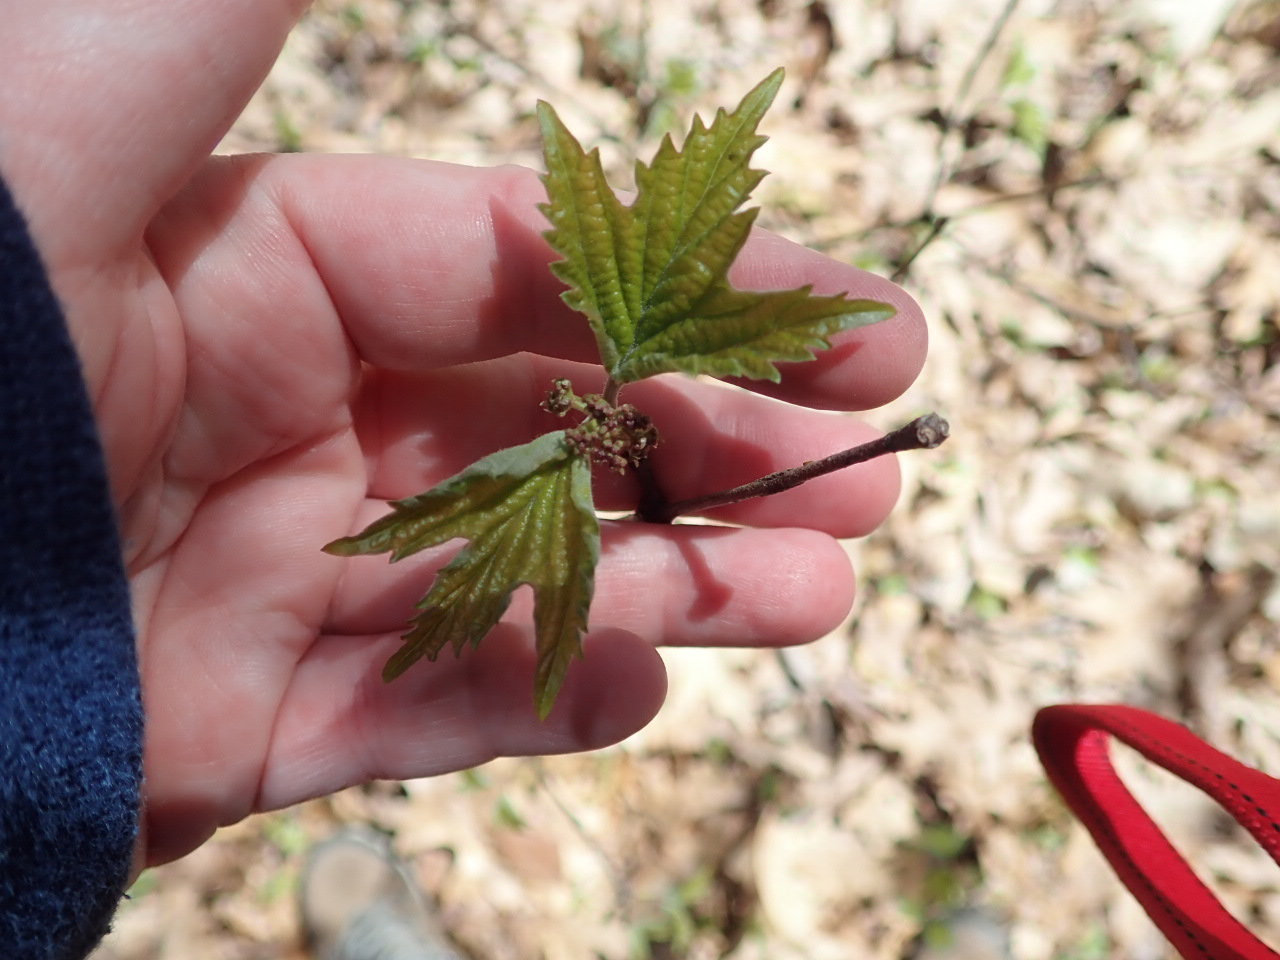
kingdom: Plantae
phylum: Tracheophyta
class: Magnoliopsida
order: Dipsacales
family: Viburnaceae
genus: Viburnum
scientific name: Viburnum acerifolium
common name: Dockmackie
